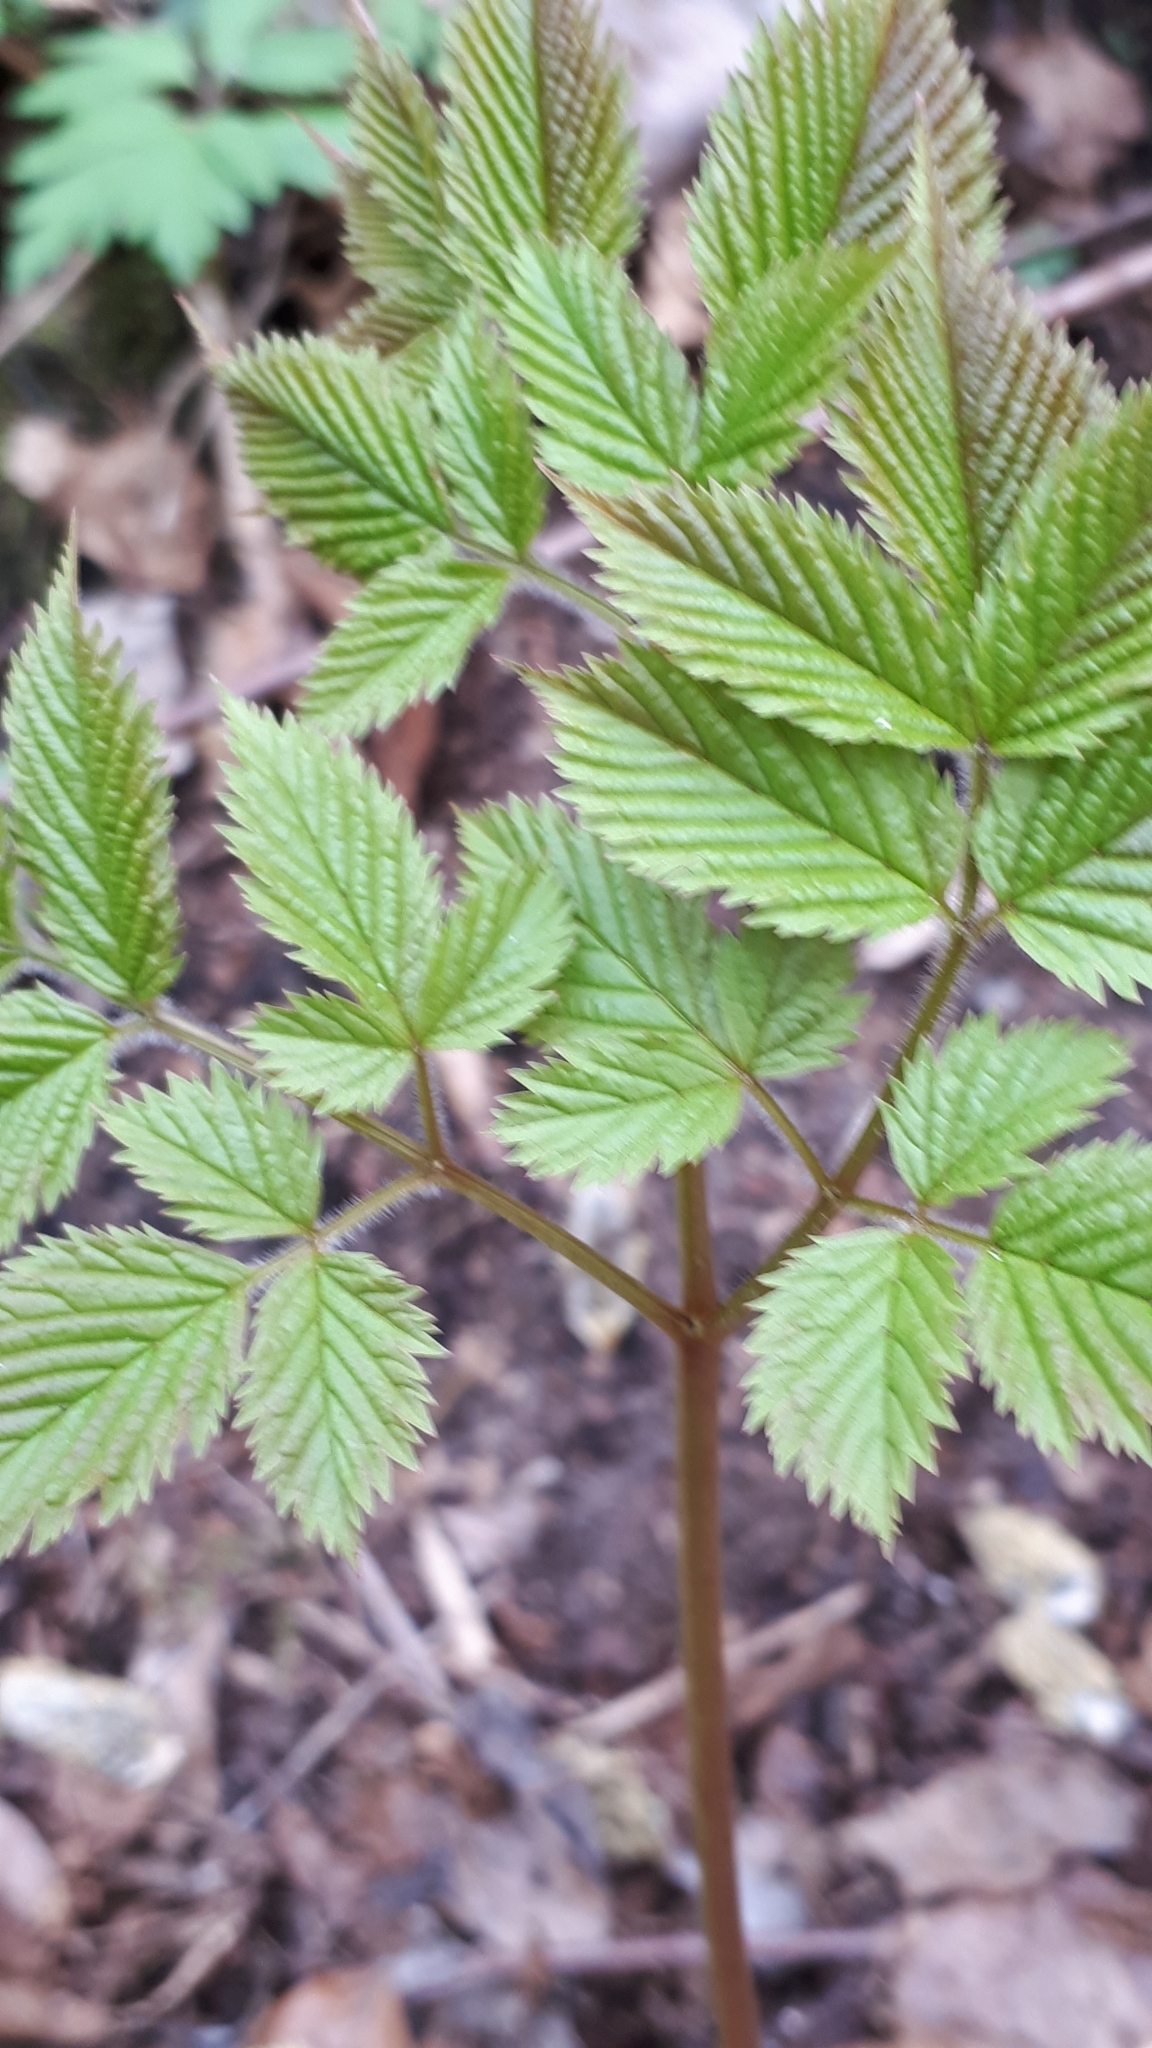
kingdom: Plantae
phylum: Tracheophyta
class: Magnoliopsida
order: Rosales
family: Rosaceae
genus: Aruncus
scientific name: Aruncus dioicus
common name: Buck's-beard
